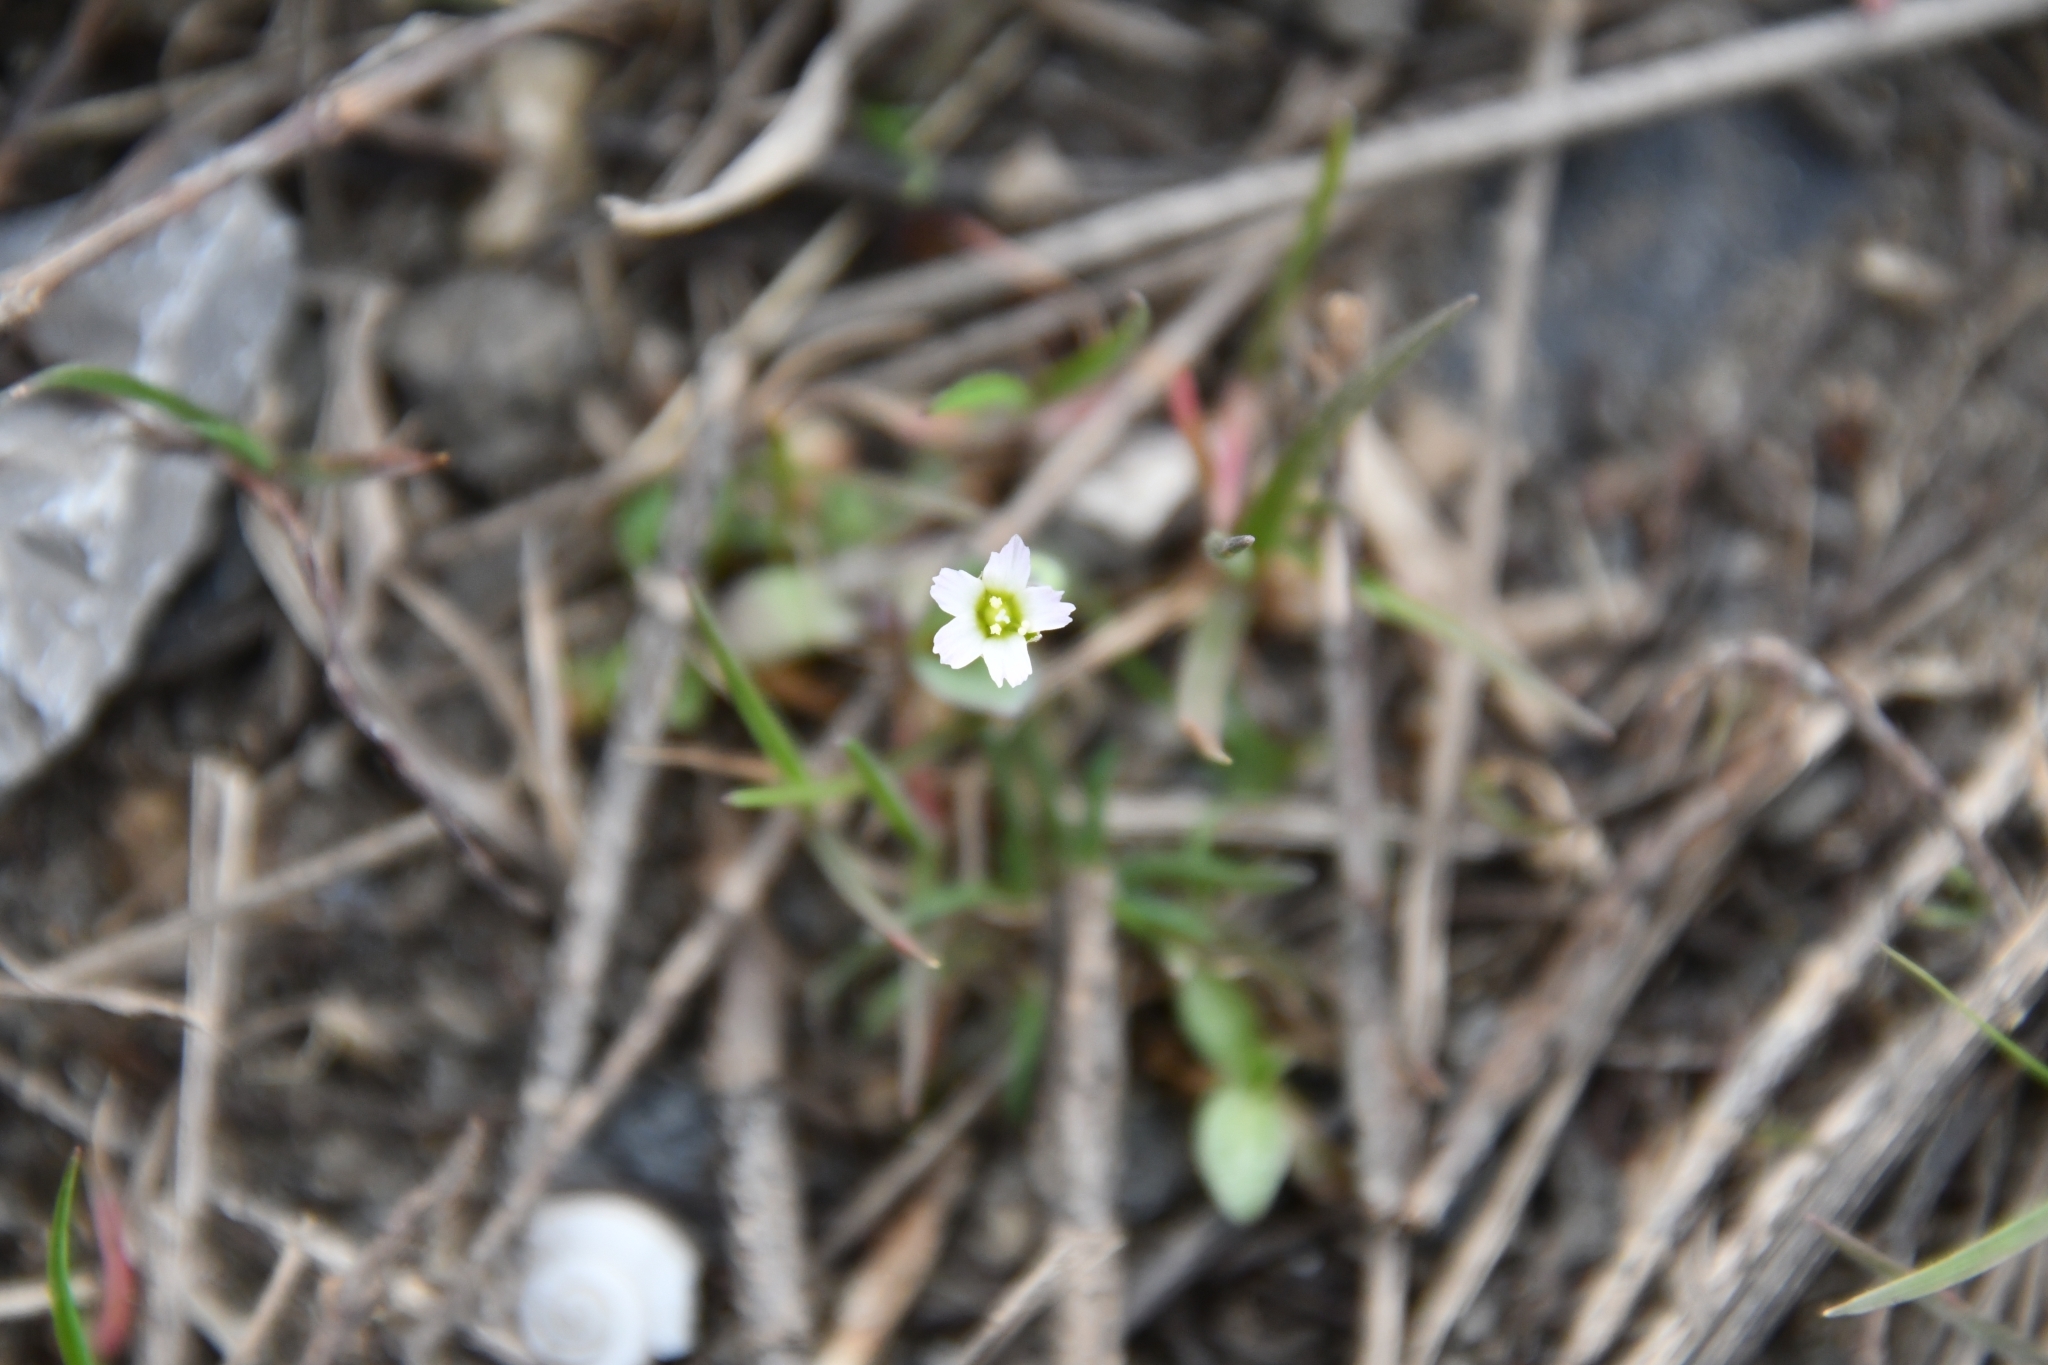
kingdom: Plantae
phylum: Tracheophyta
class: Magnoliopsida
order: Caryophyllales
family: Caryophyllaceae
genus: Holosteum
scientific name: Holosteum umbellatum
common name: Jagged chickweed
